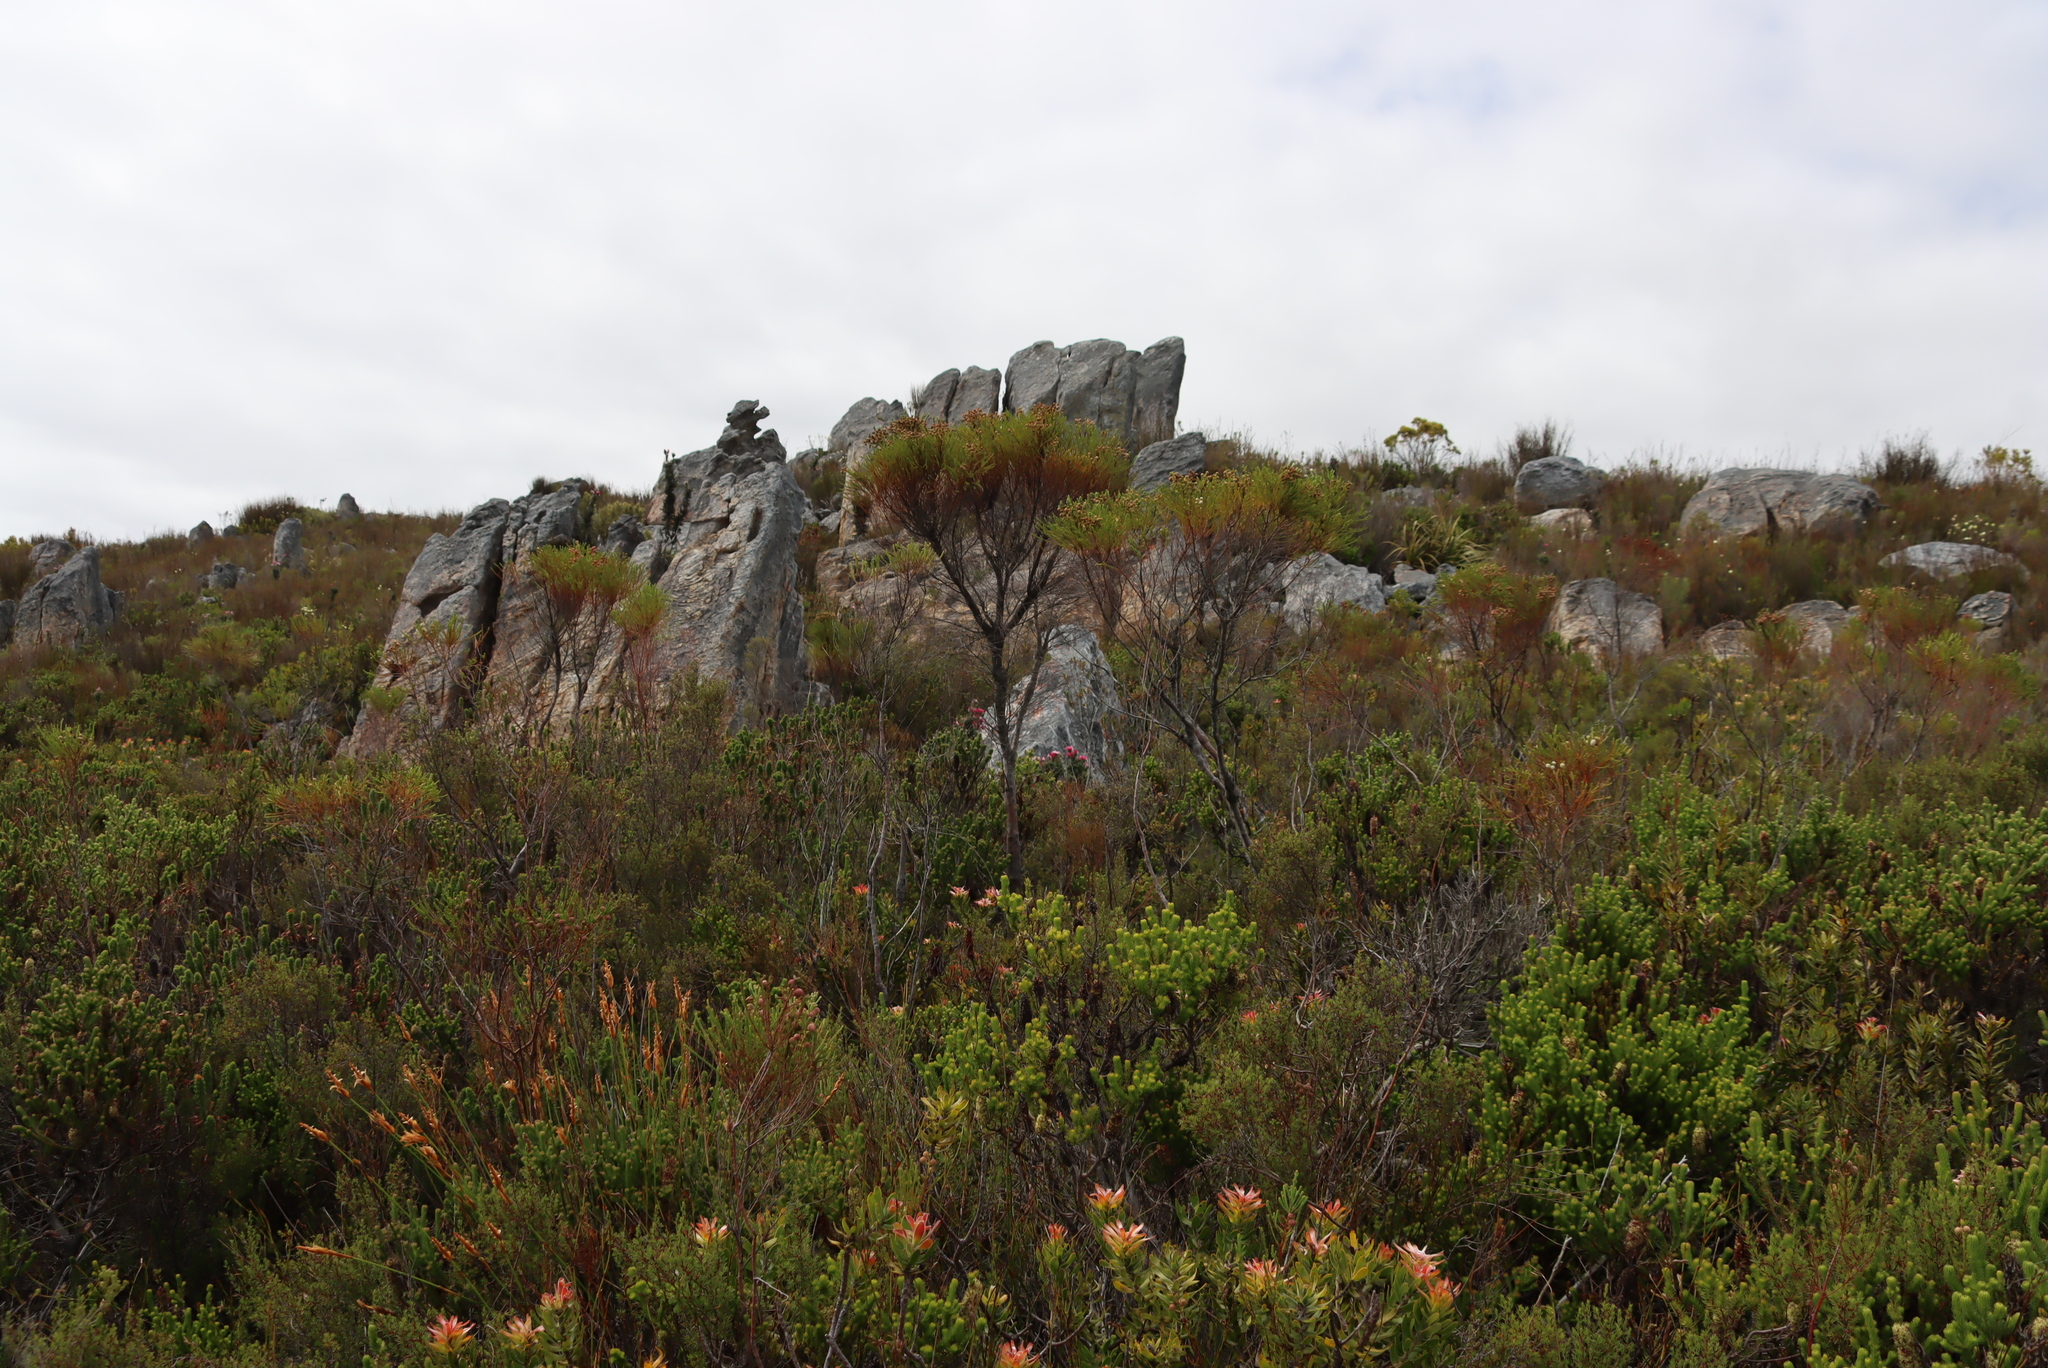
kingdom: Plantae
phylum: Tracheophyta
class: Magnoliopsida
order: Bruniales
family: Bruniaceae
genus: Berzelia
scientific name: Berzelia lanuginosa
